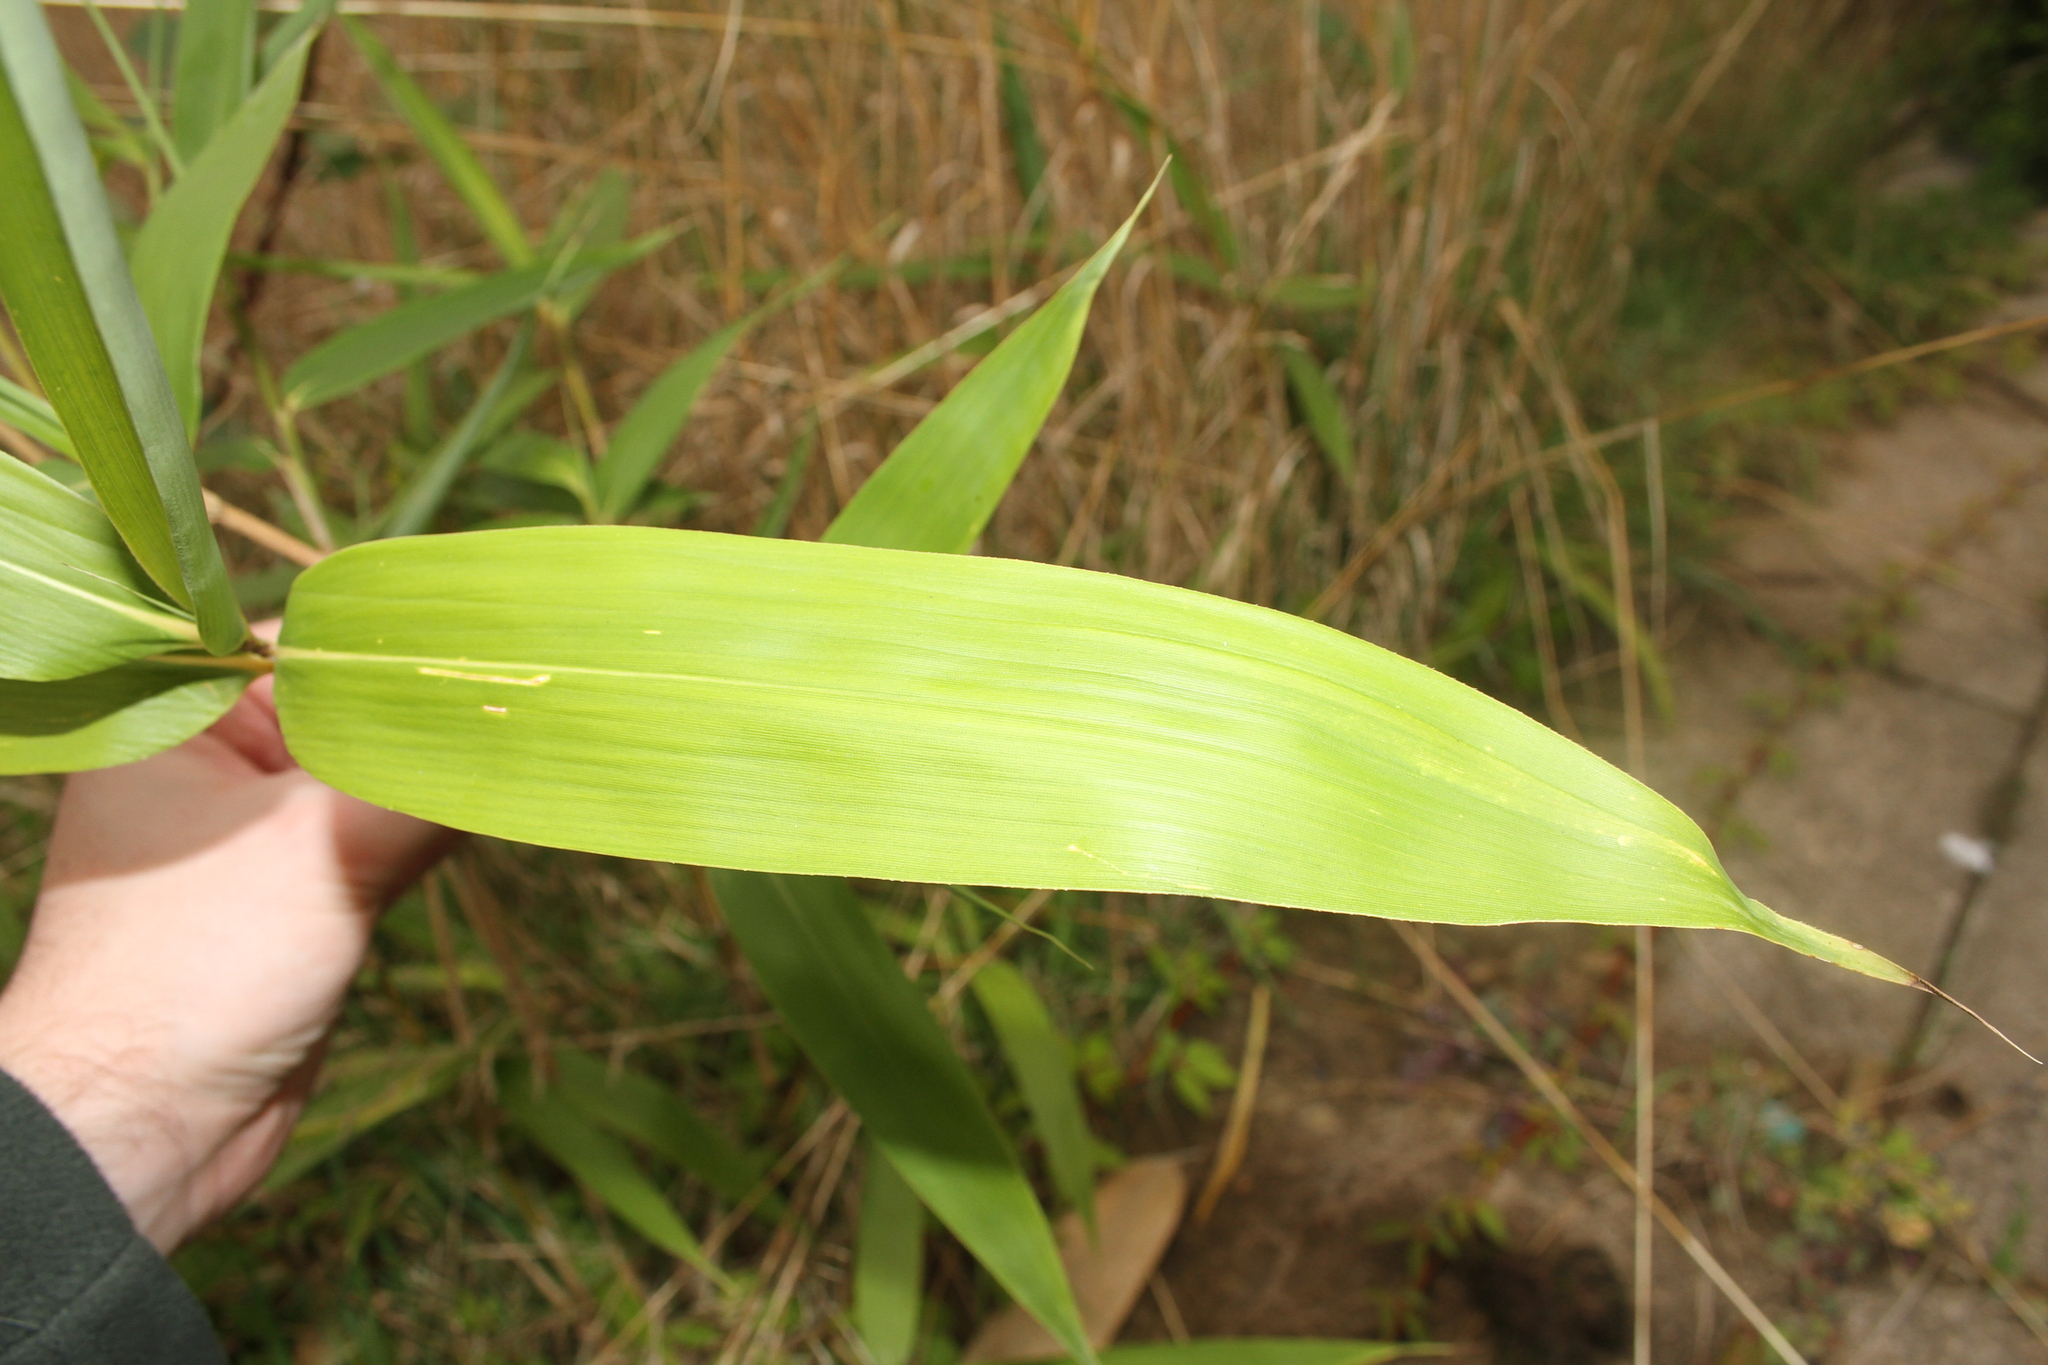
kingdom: Plantae
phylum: Tracheophyta
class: Liliopsida
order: Poales
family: Poaceae
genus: Pseudosasa
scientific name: Pseudosasa japonica
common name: Arrow bamboo
